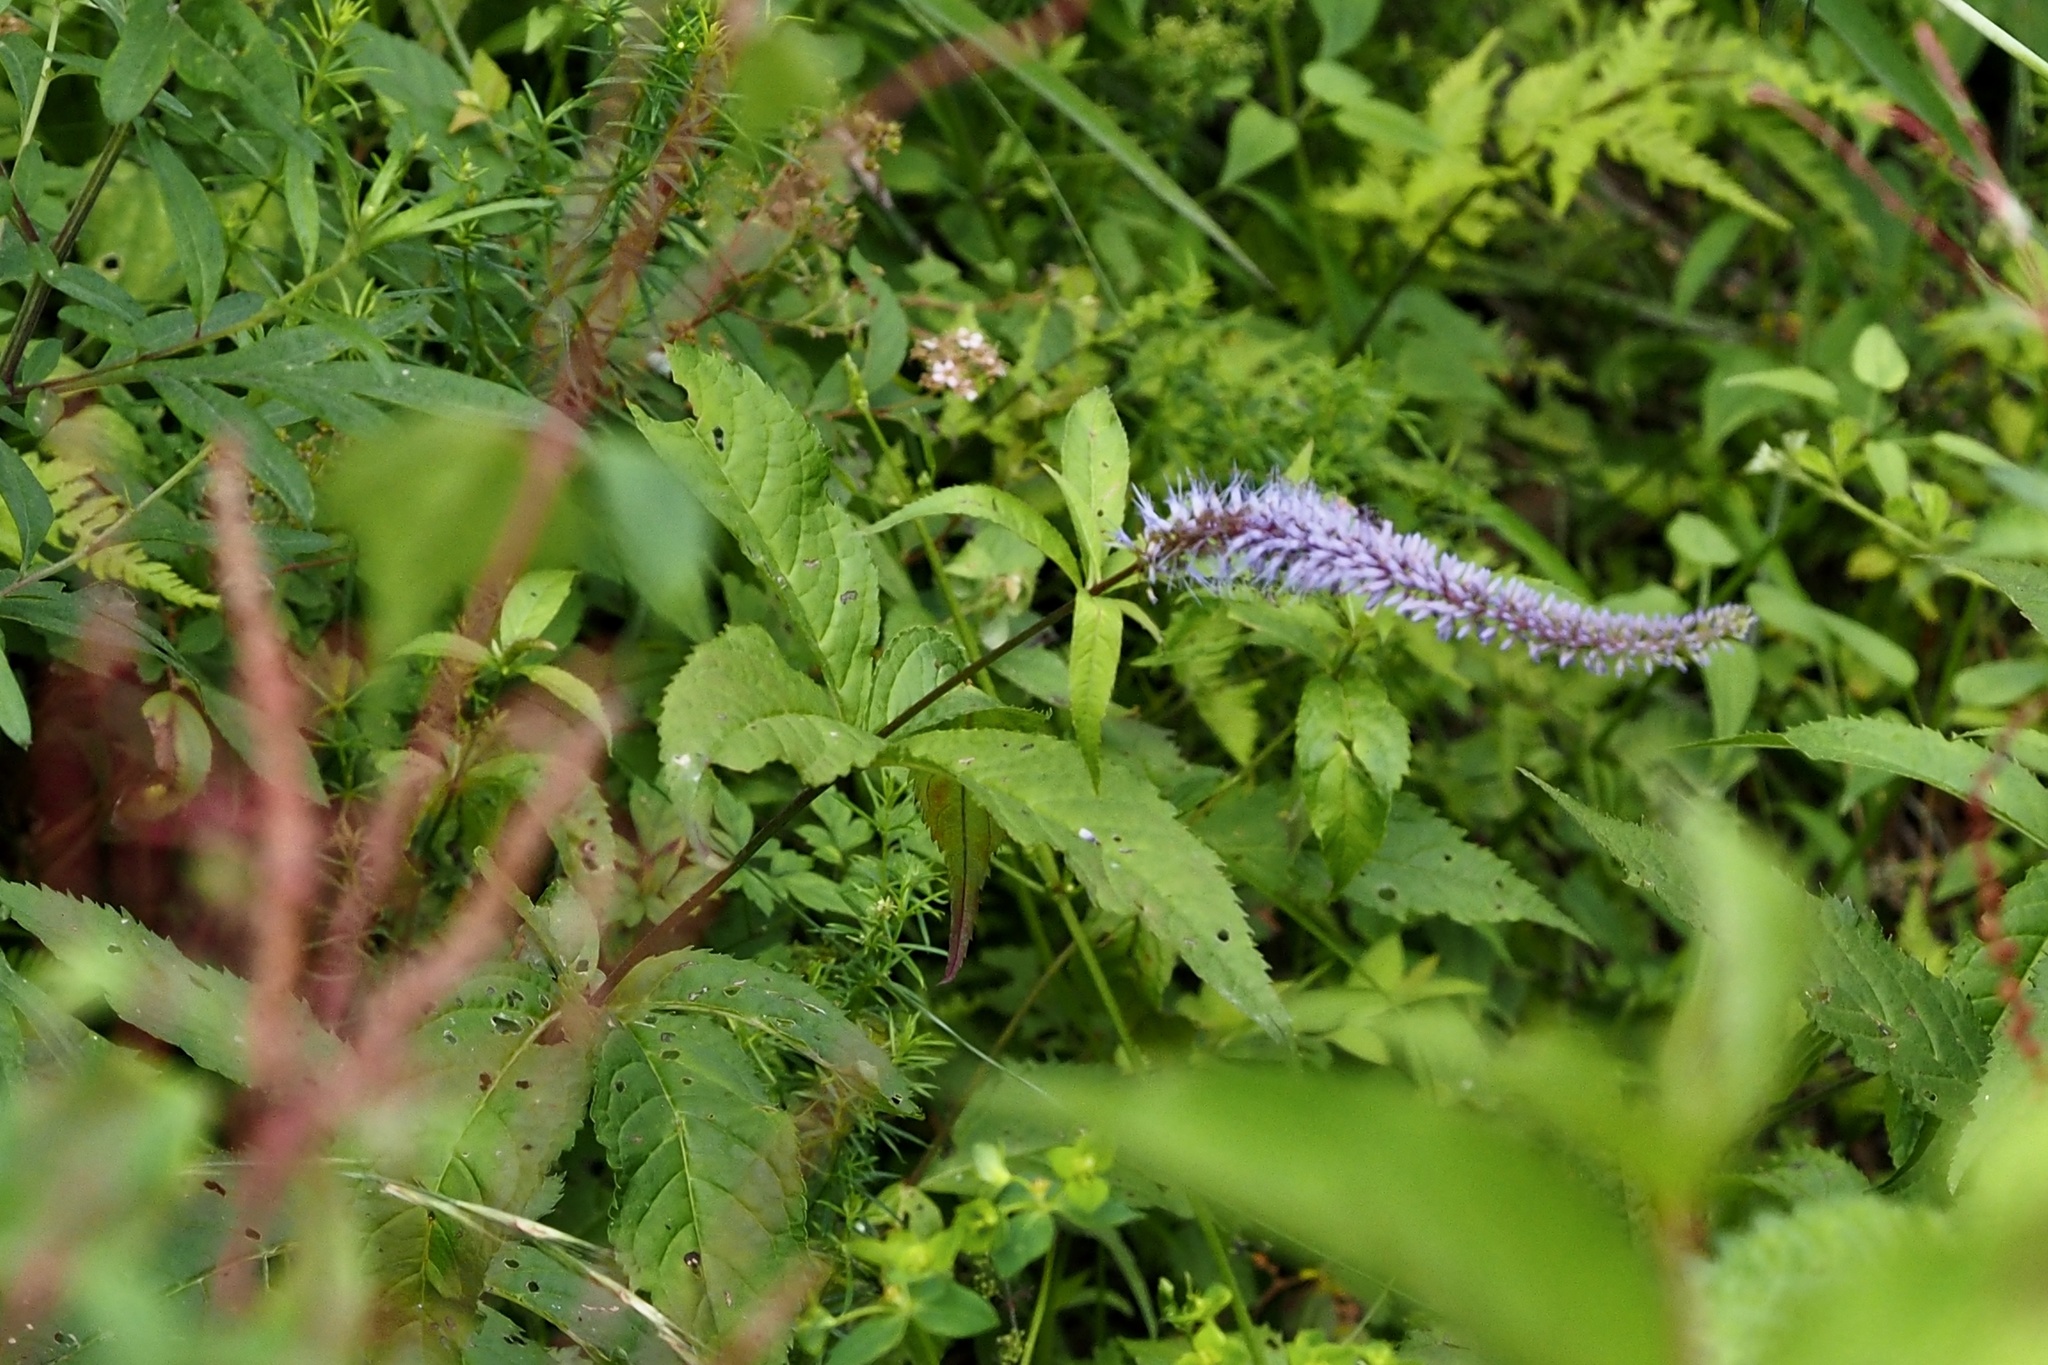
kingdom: Plantae
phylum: Tracheophyta
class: Magnoliopsida
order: Lamiales
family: Plantaginaceae
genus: Veronicastrum
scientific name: Veronicastrum japonicum
